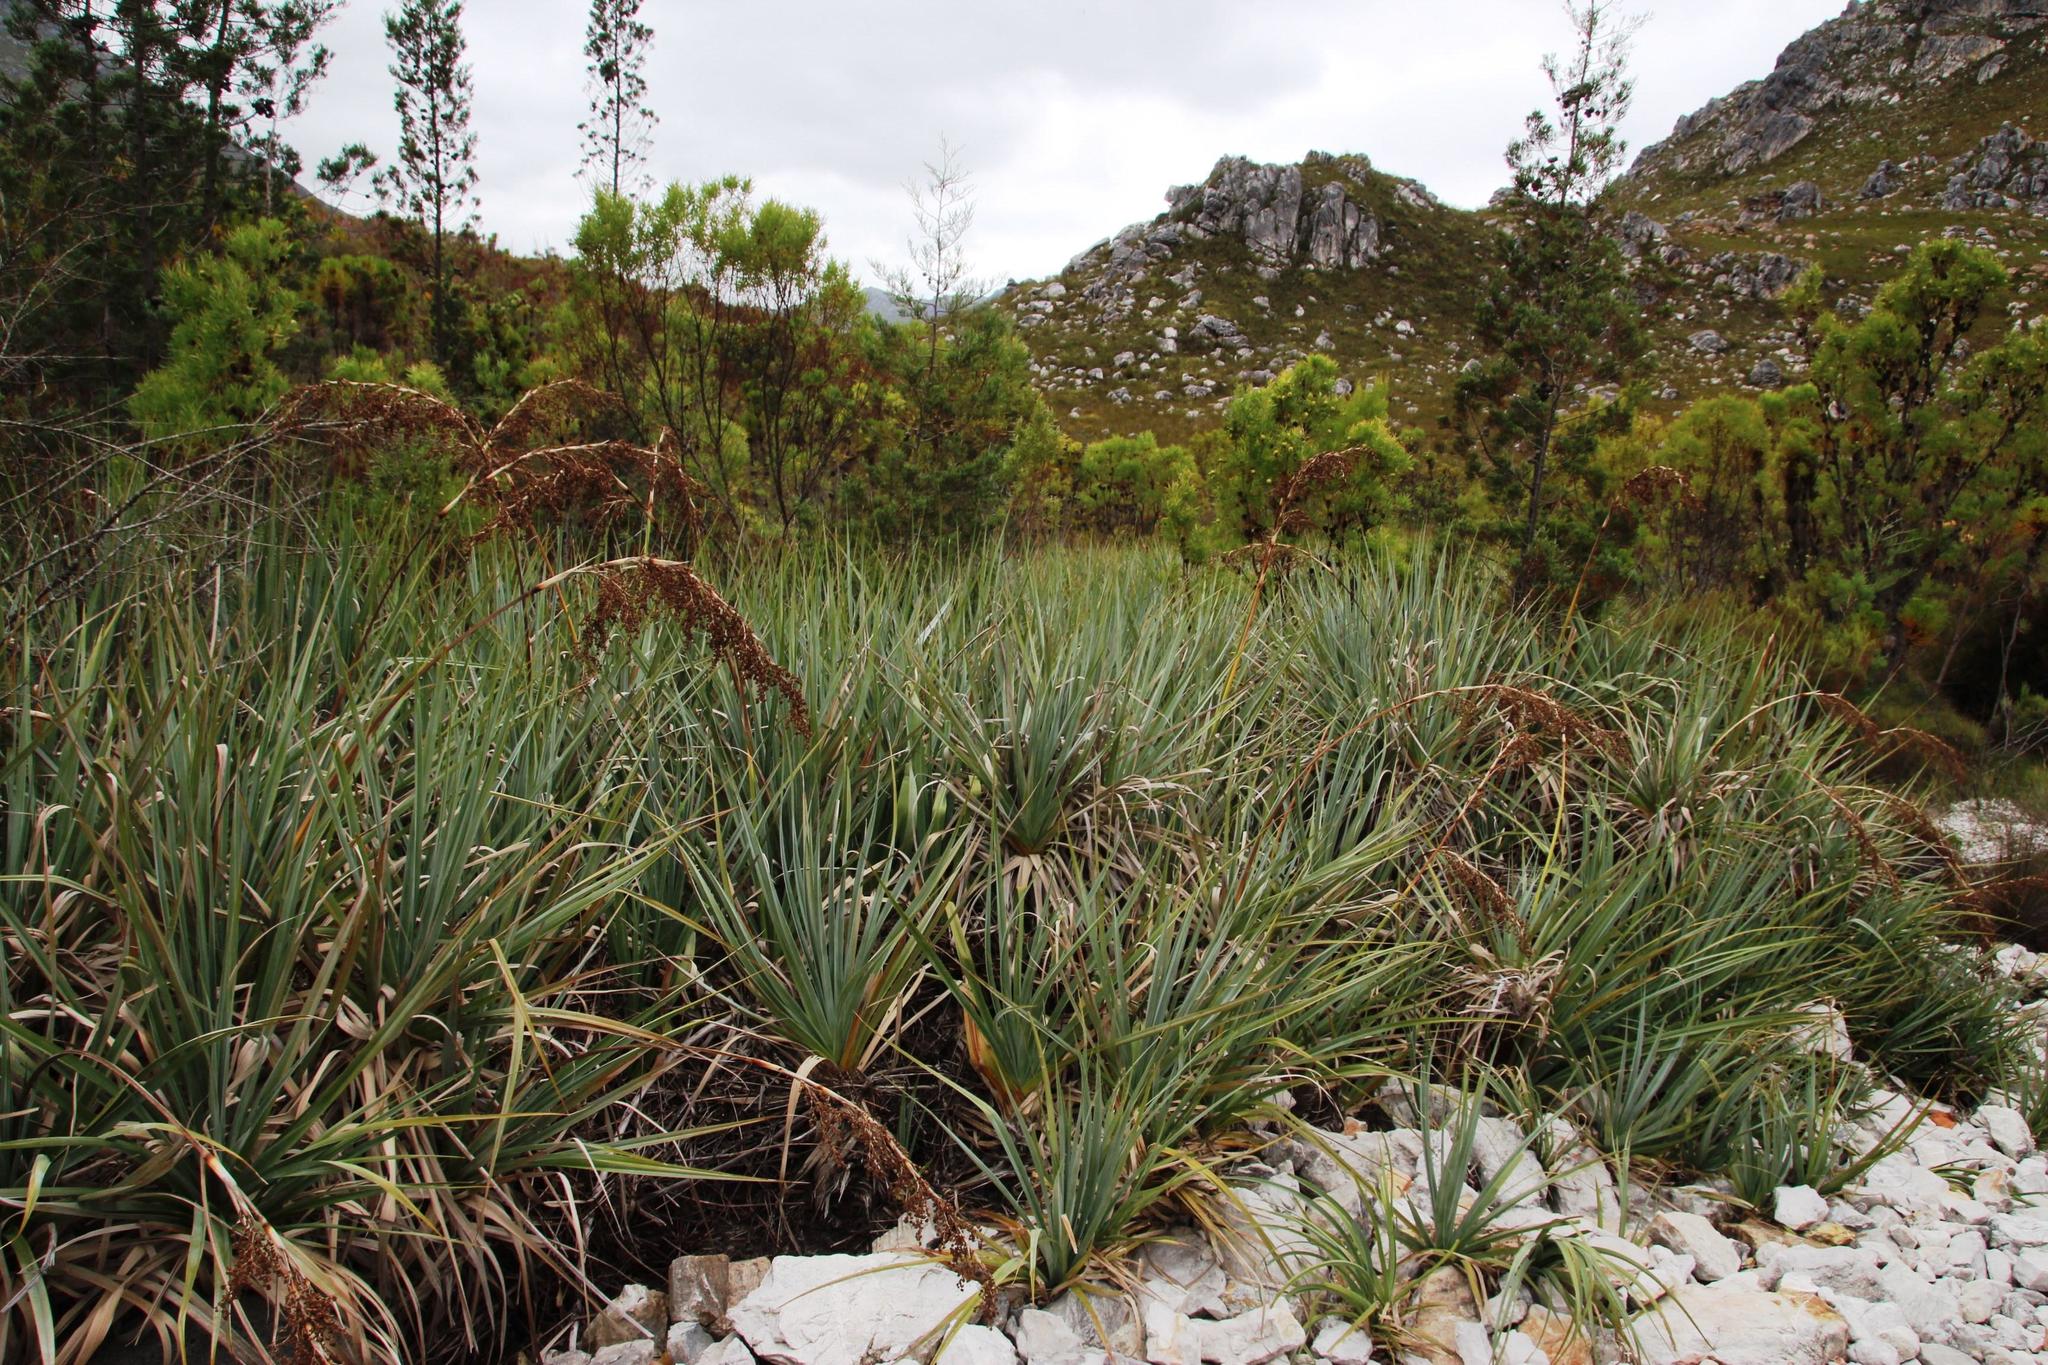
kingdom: Plantae
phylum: Tracheophyta
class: Liliopsida
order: Poales
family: Thurniaceae
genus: Prionium
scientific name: Prionium serratum
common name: Palmiet
